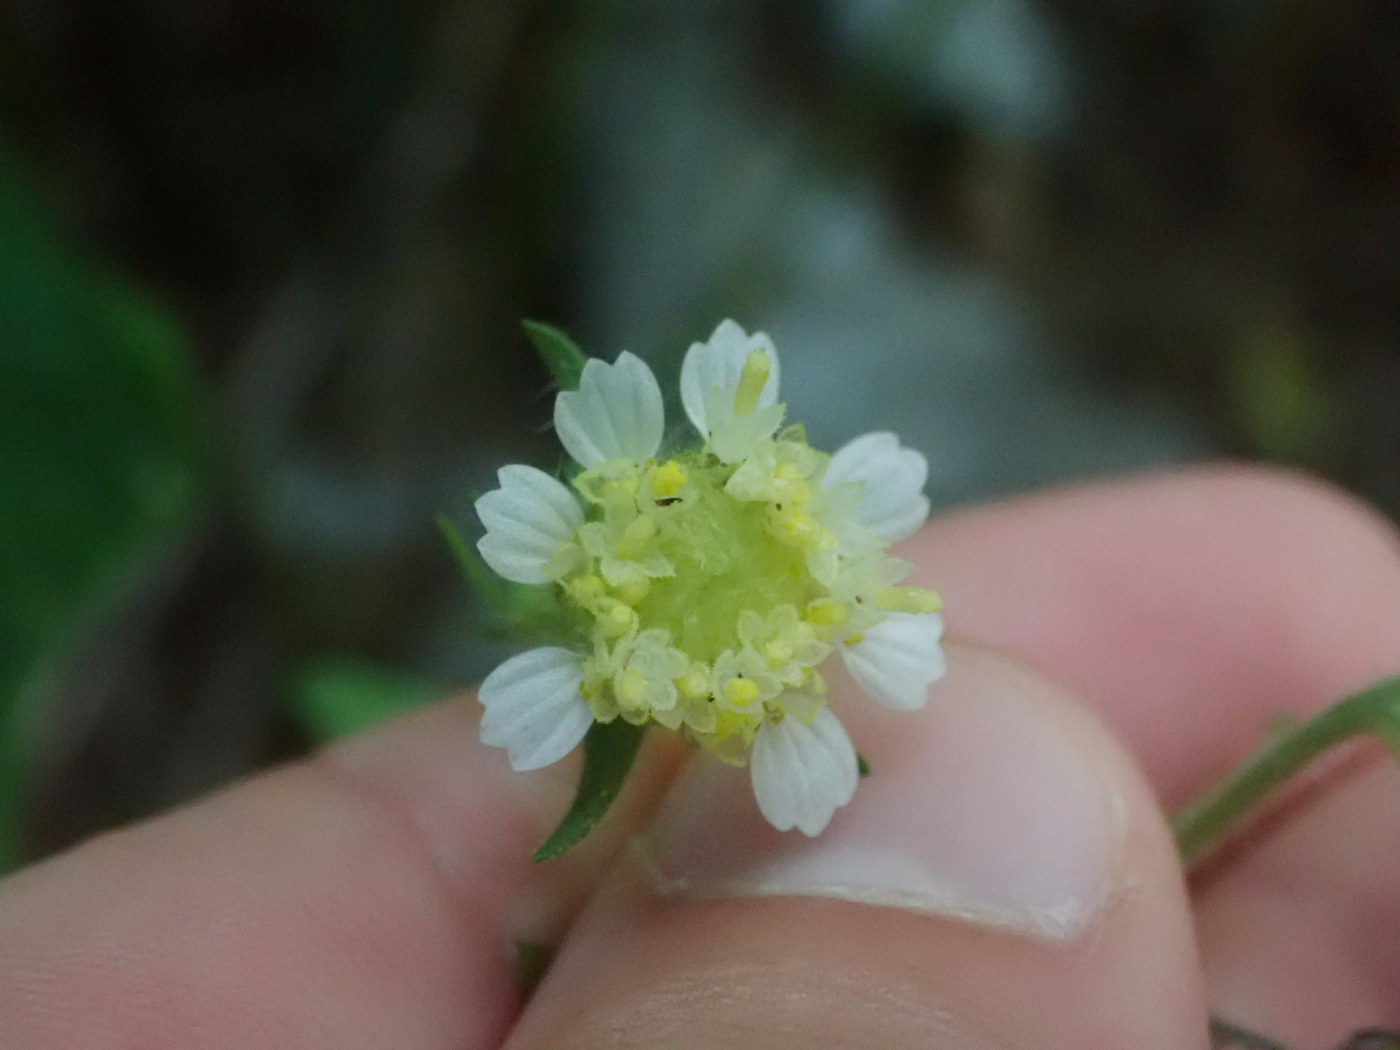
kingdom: Plantae
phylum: Tracheophyta
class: Magnoliopsida
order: Asterales
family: Asteraceae
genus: Polymnia
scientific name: Polymnia canadensis
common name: Pale-flowered leafcup
